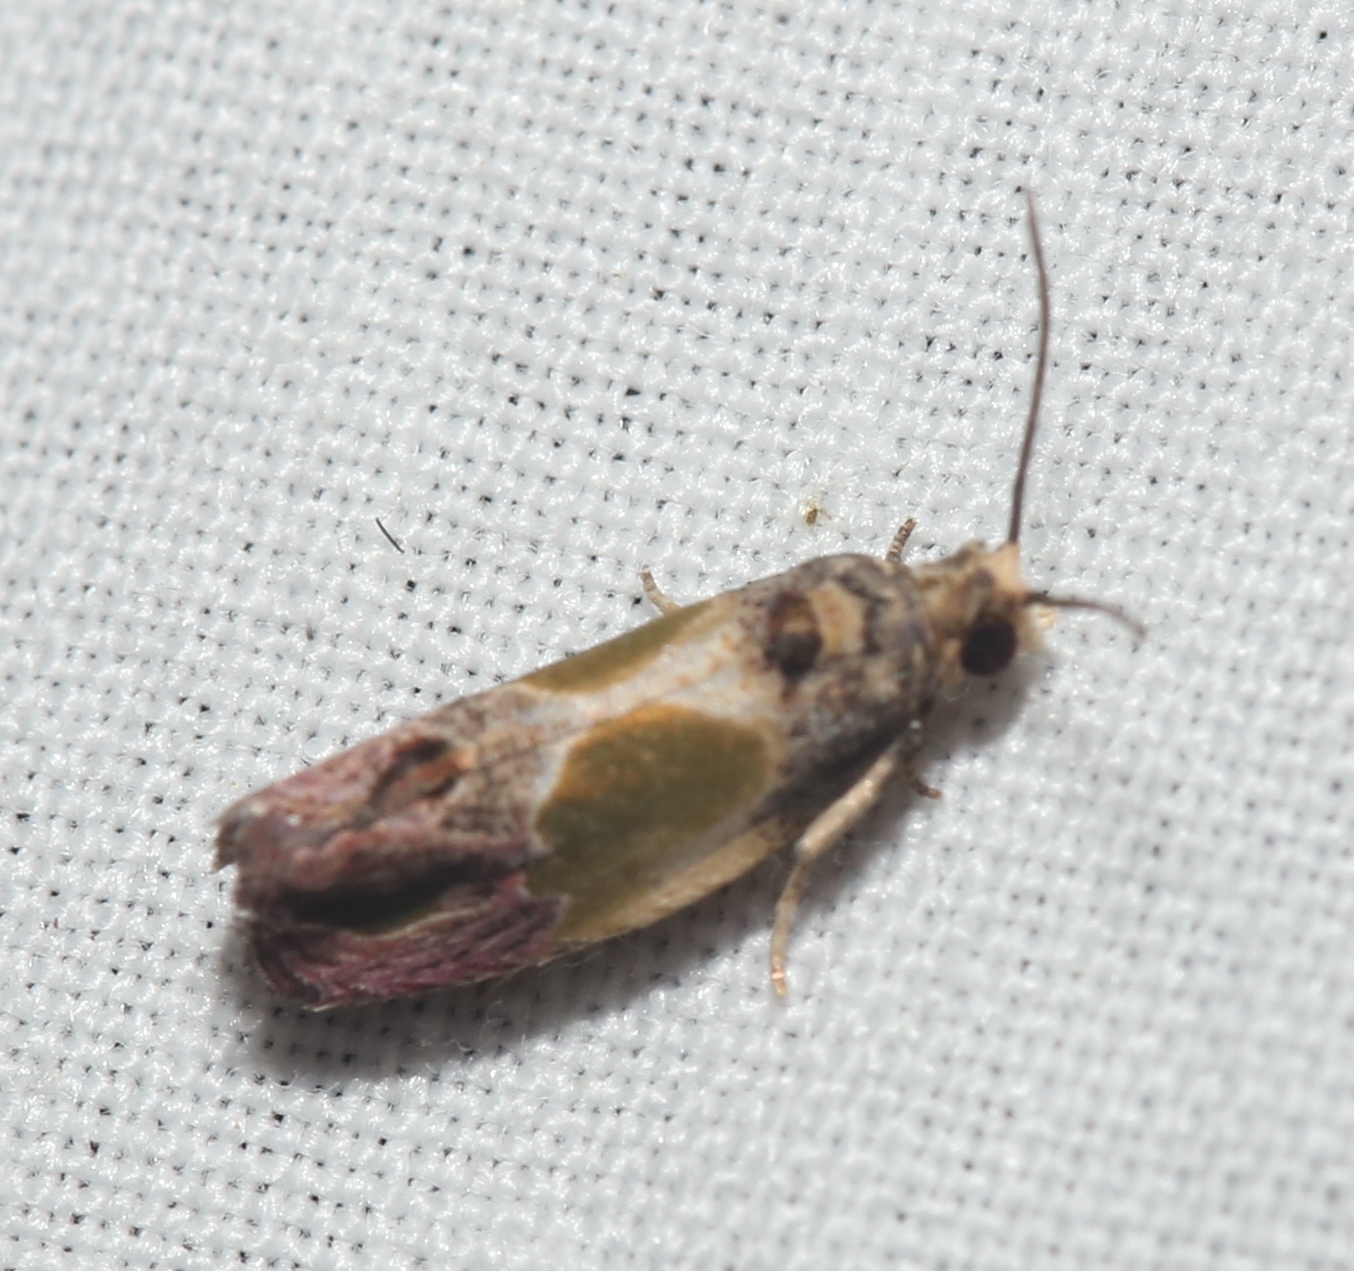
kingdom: Animalia
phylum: Arthropoda
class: Insecta
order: Lepidoptera
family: Tortricidae
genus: Eumarozia
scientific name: Eumarozia malachitana
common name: Sculptured moth
